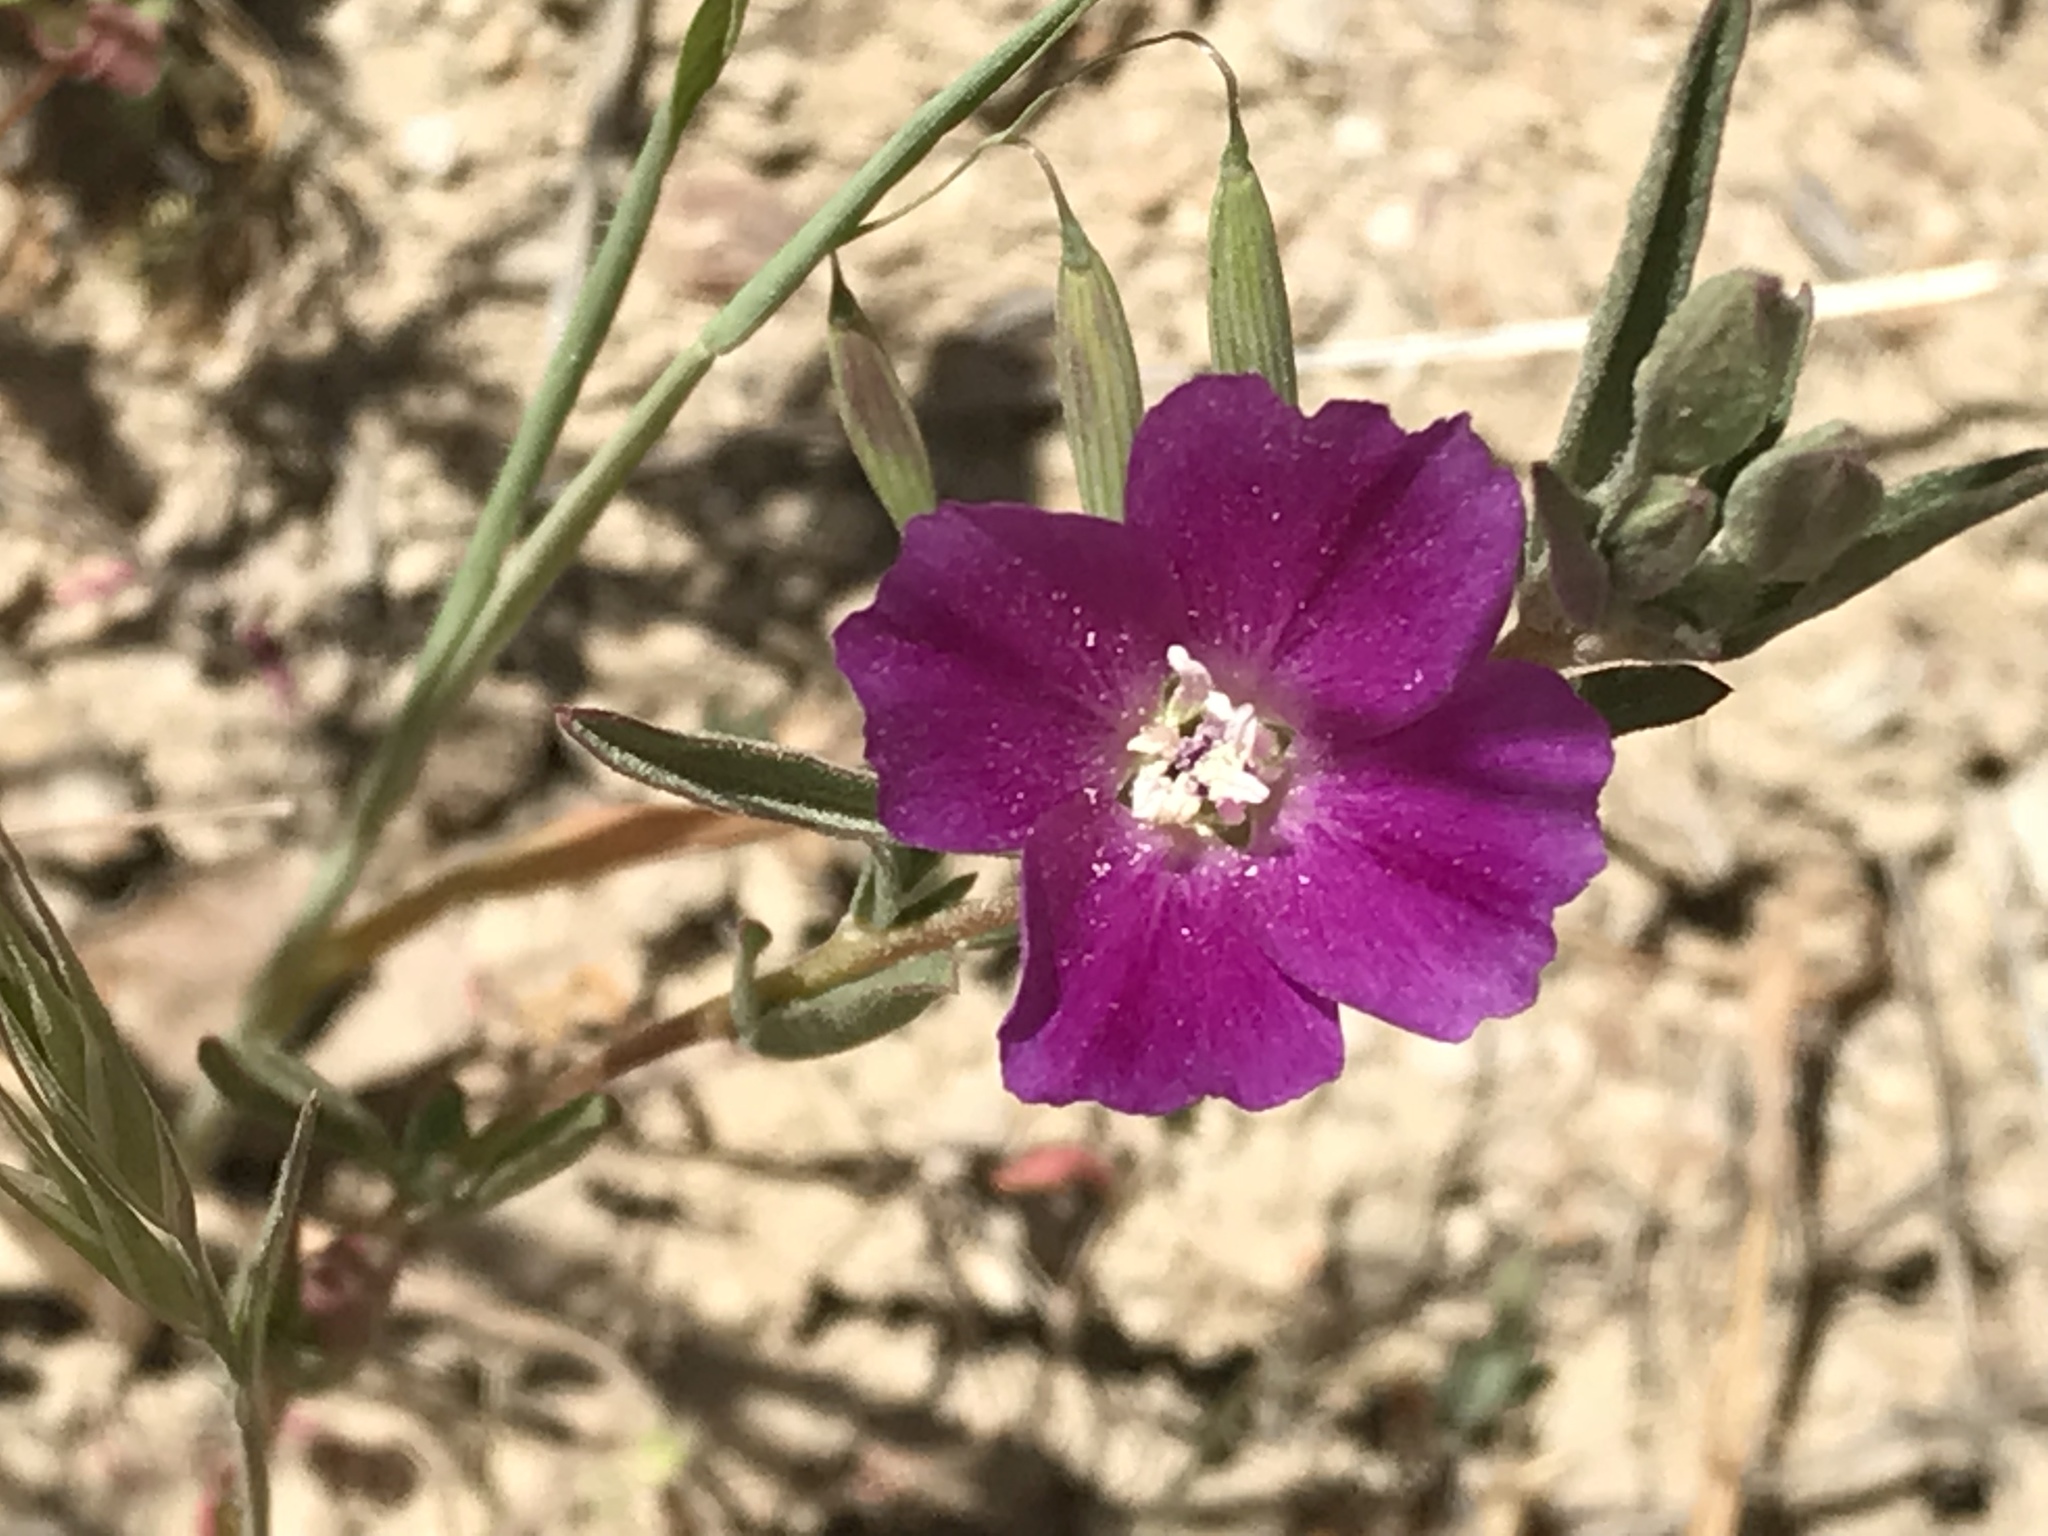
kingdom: Plantae
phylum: Tracheophyta
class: Magnoliopsida
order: Myrtales
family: Onagraceae
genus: Clarkia
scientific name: Clarkia purpurea
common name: Purple clarkia
